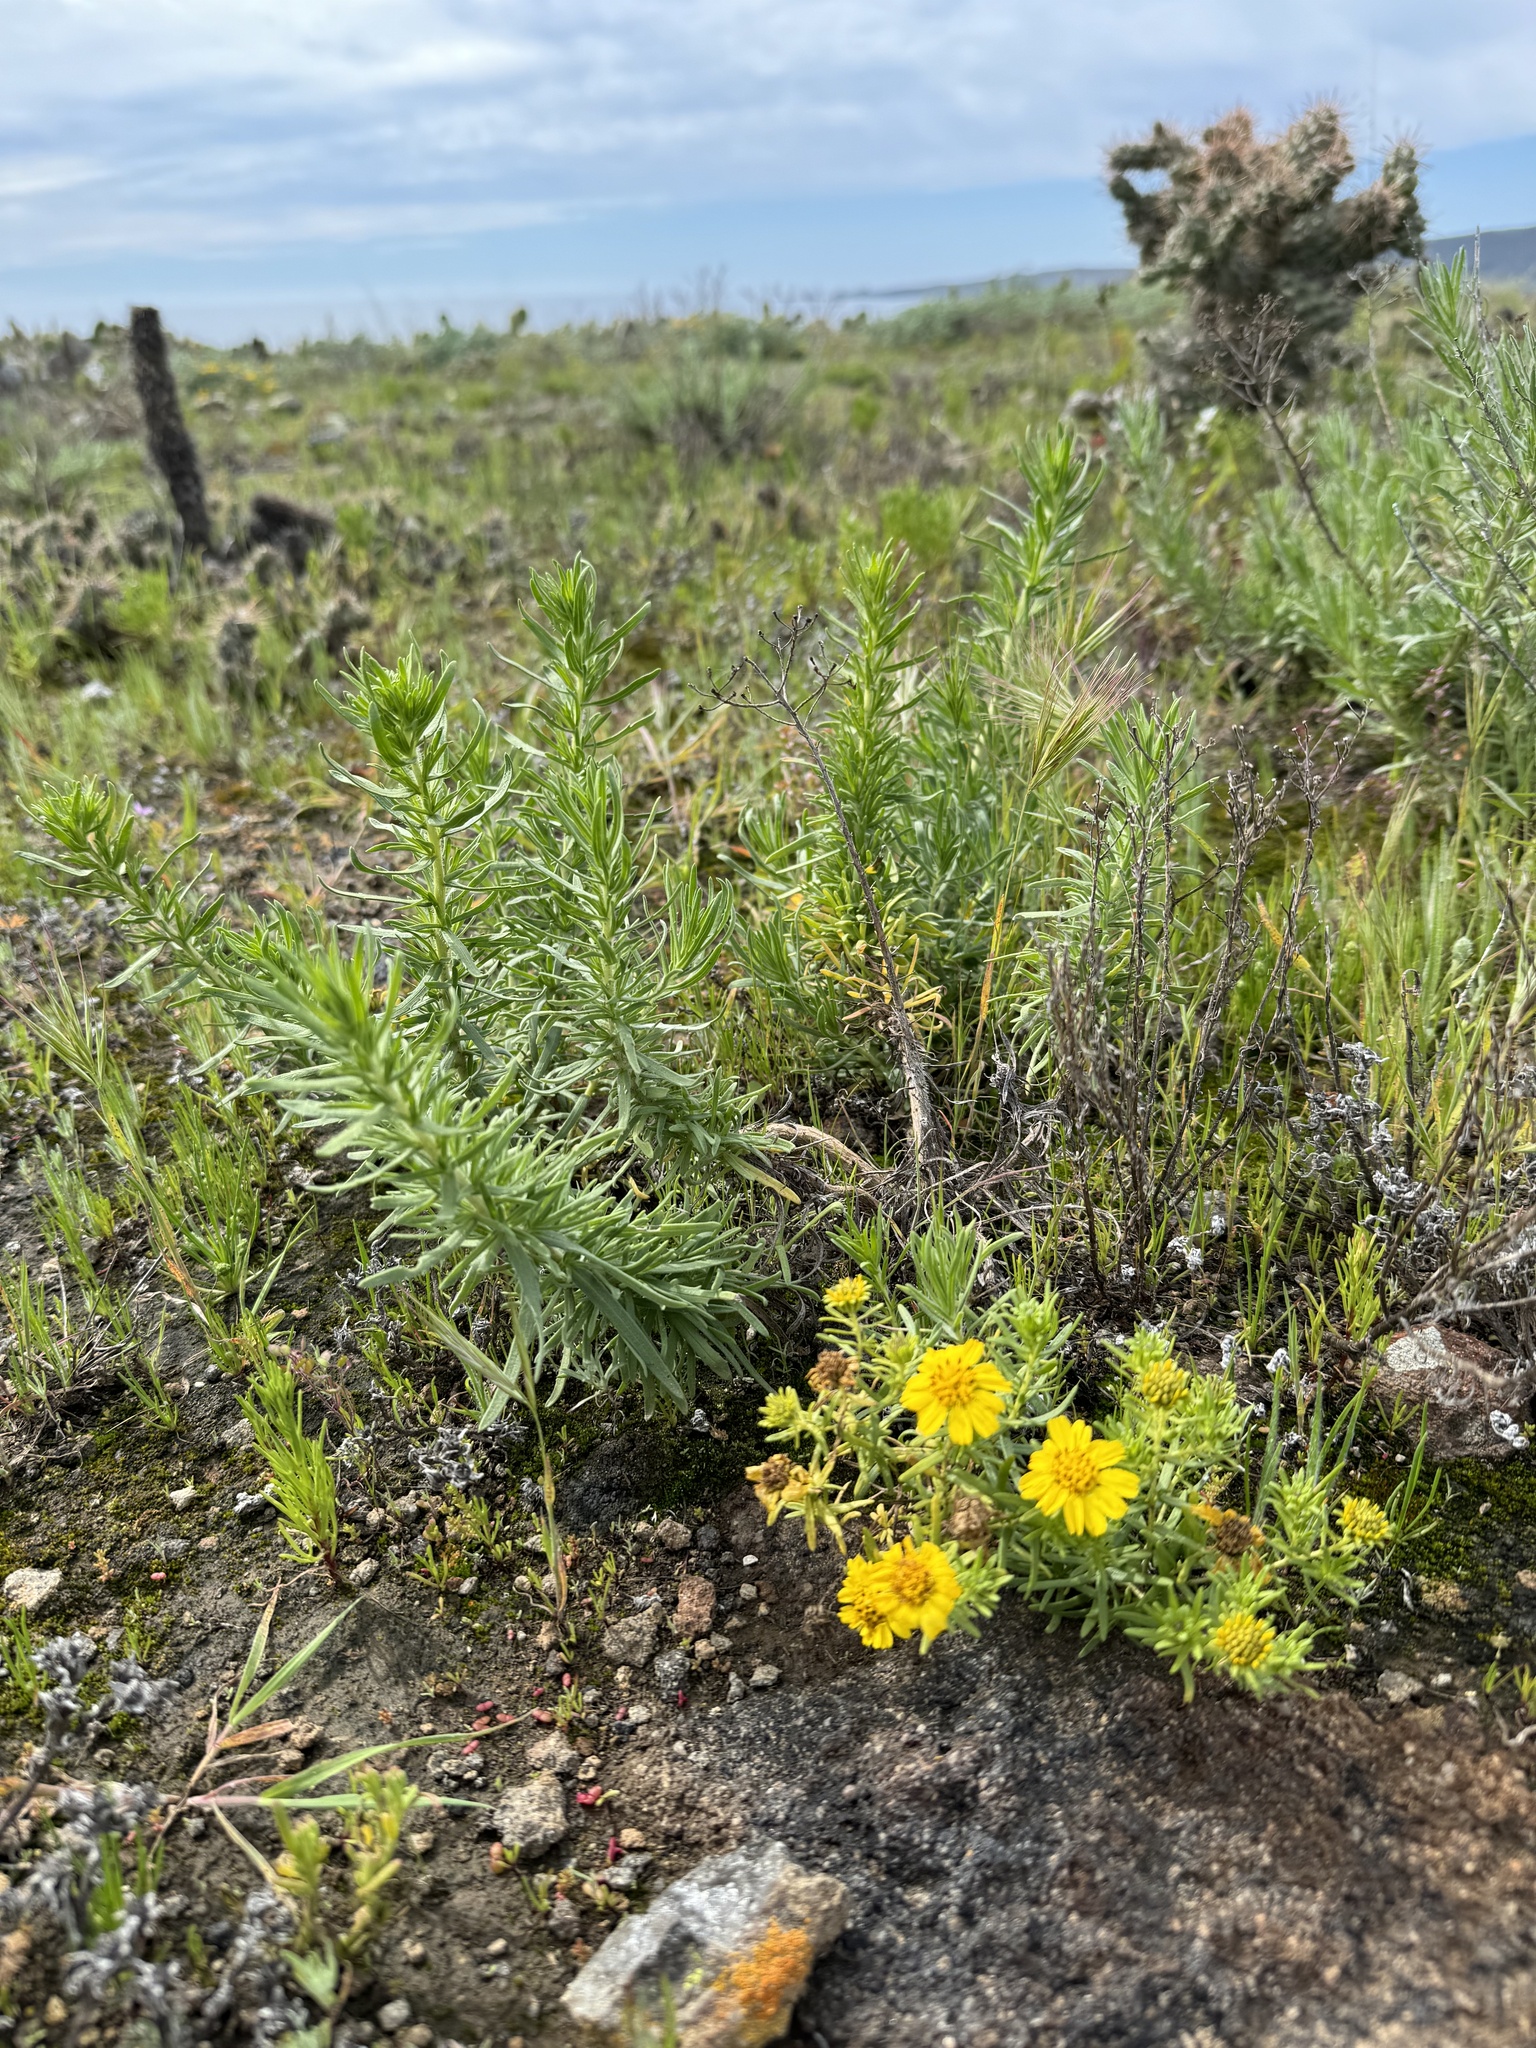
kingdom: Plantae
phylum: Tracheophyta
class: Magnoliopsida
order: Asterales
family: Asteraceae
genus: Deinandra
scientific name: Deinandra clementina
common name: Island tarplant
